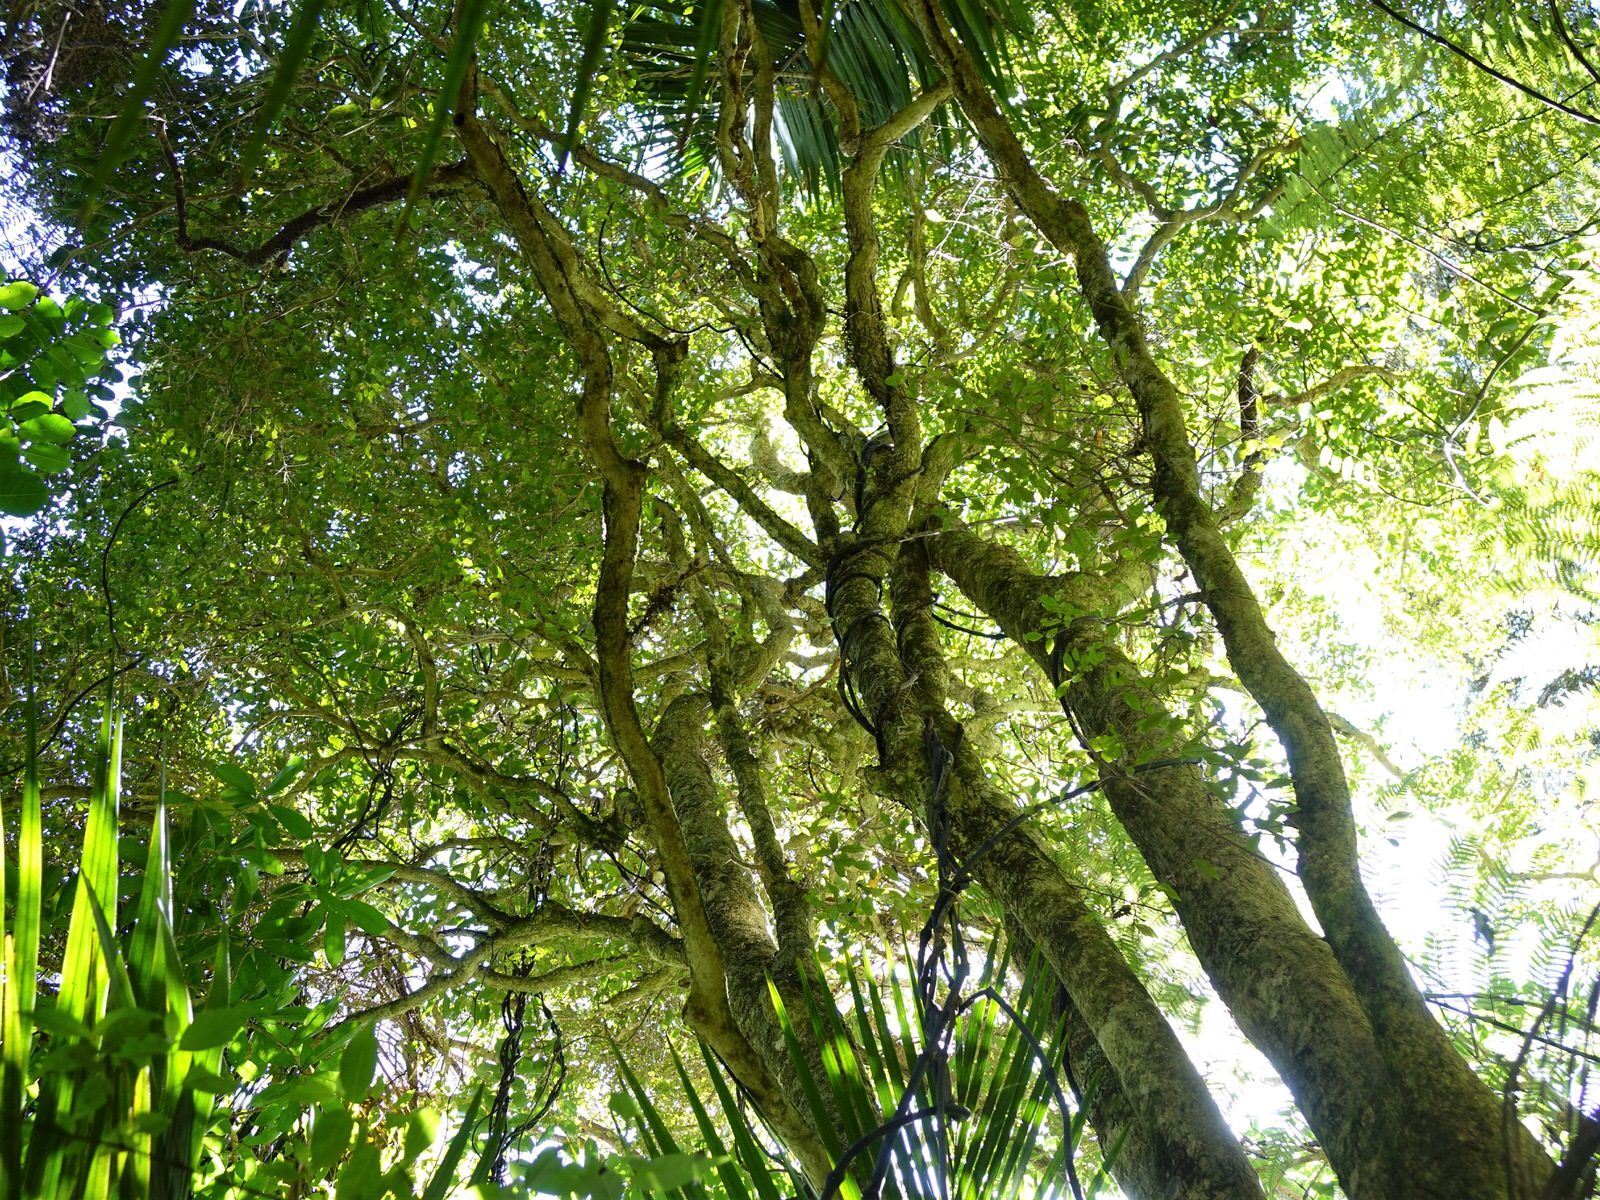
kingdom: Plantae
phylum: Tracheophyta
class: Magnoliopsida
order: Myrtales
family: Myrtaceae
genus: Syzygium
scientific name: Syzygium maire
